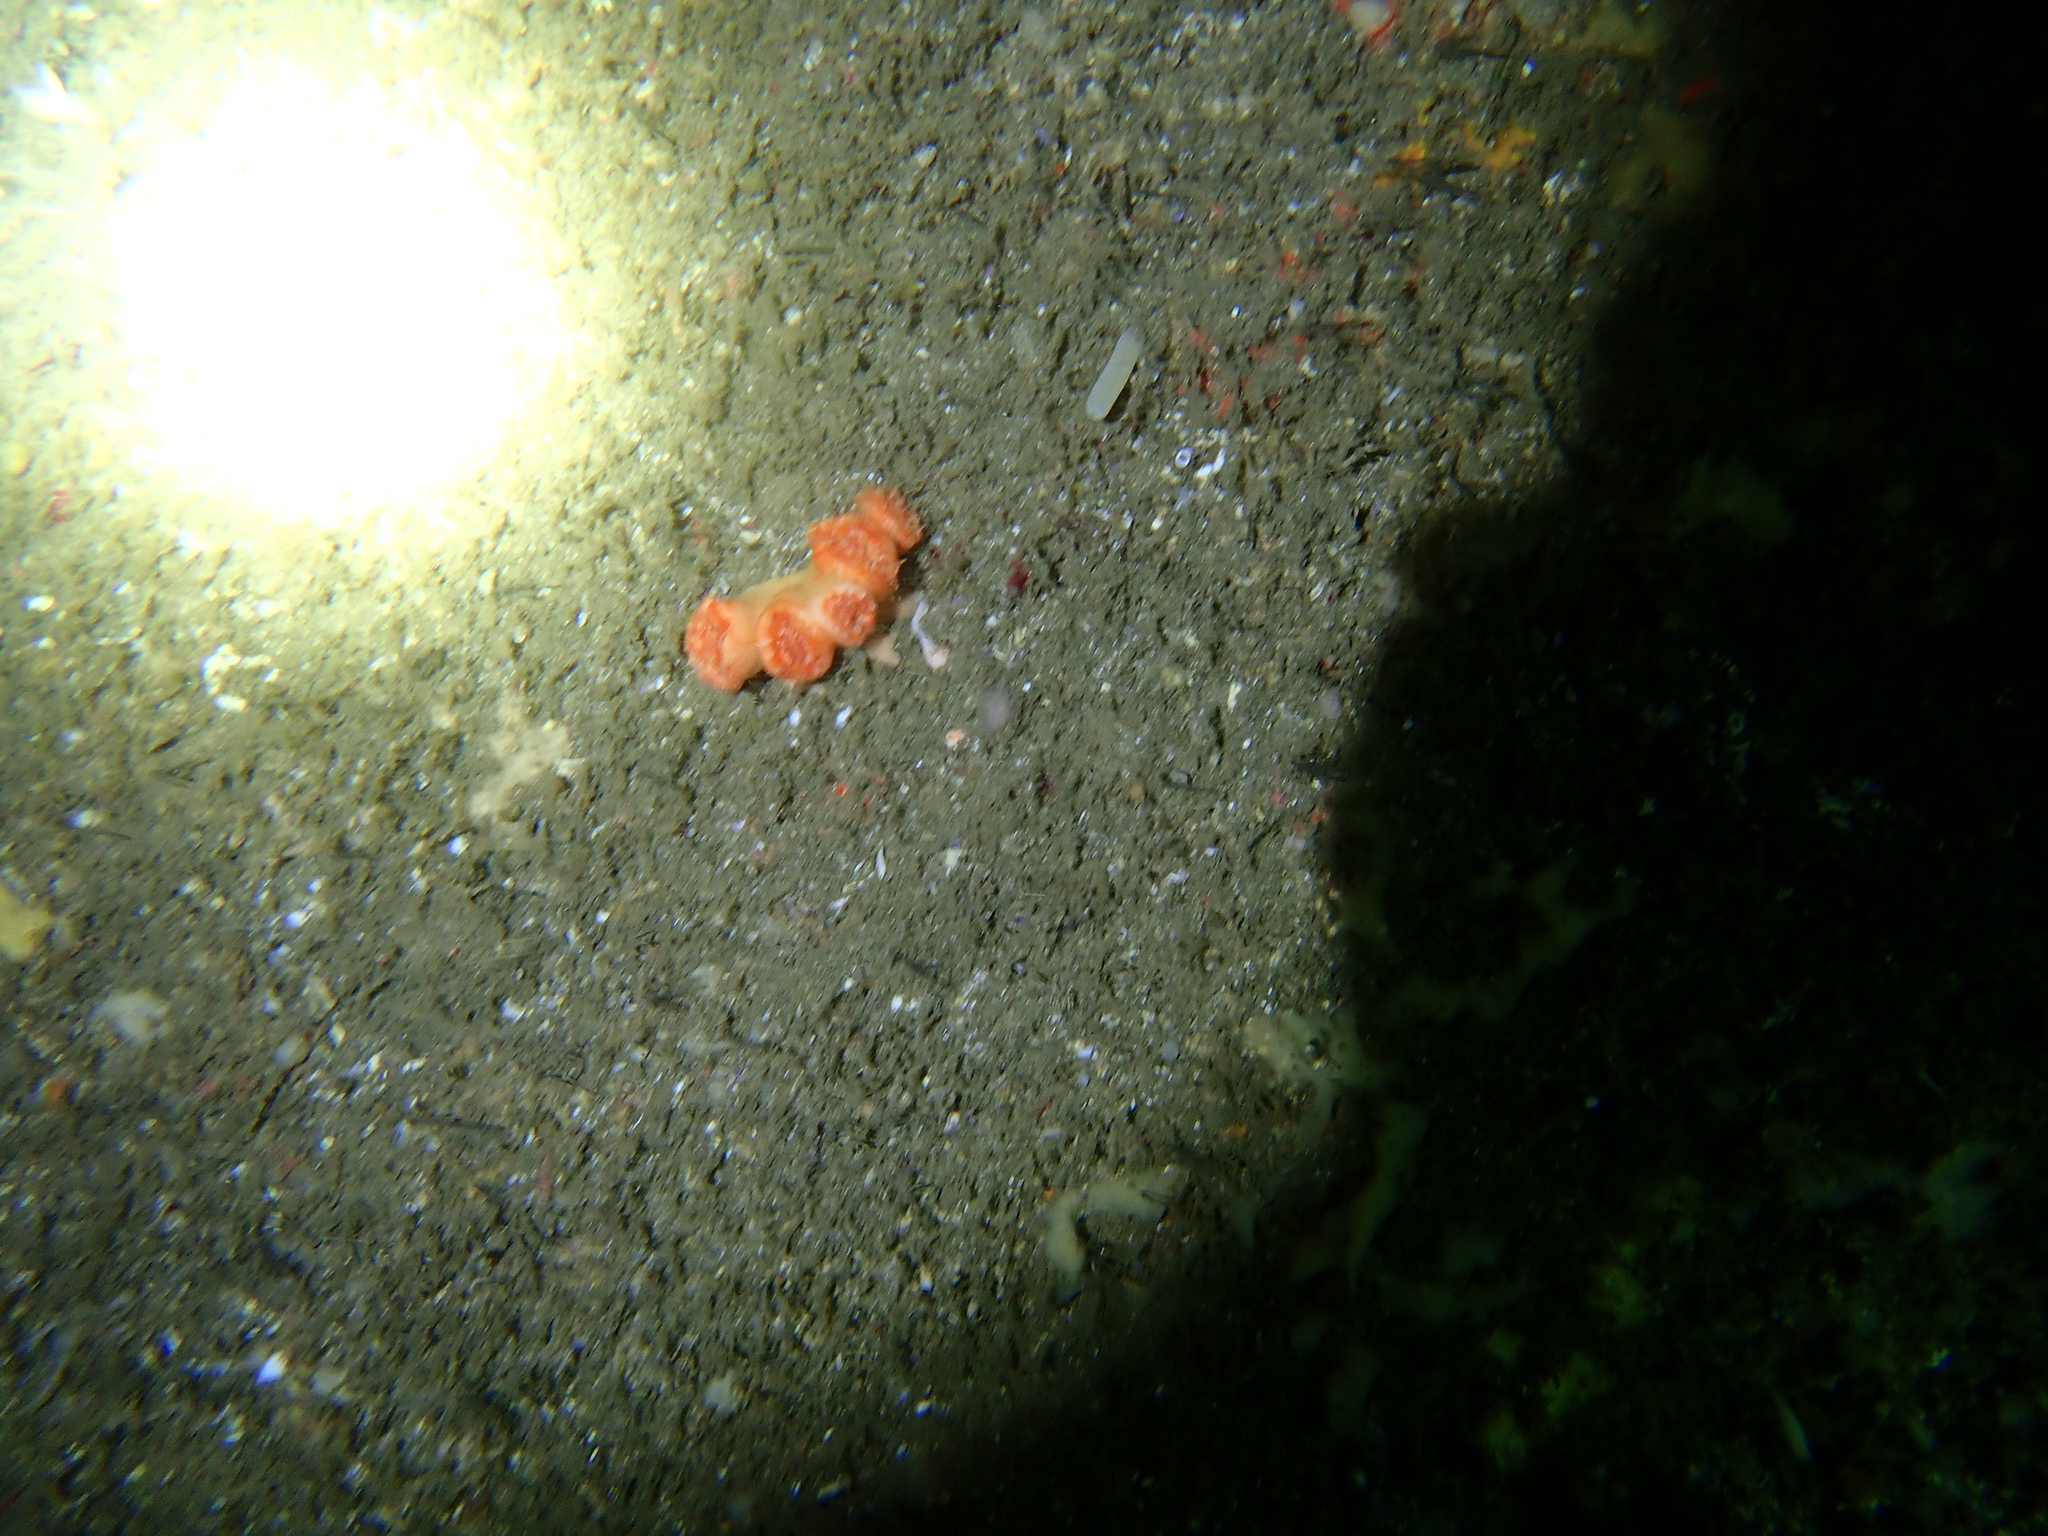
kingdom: Animalia
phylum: Cnidaria
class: Anthozoa
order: Scleractinia
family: Dendrophylliidae
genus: Tubastraea
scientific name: Tubastraea aurea
